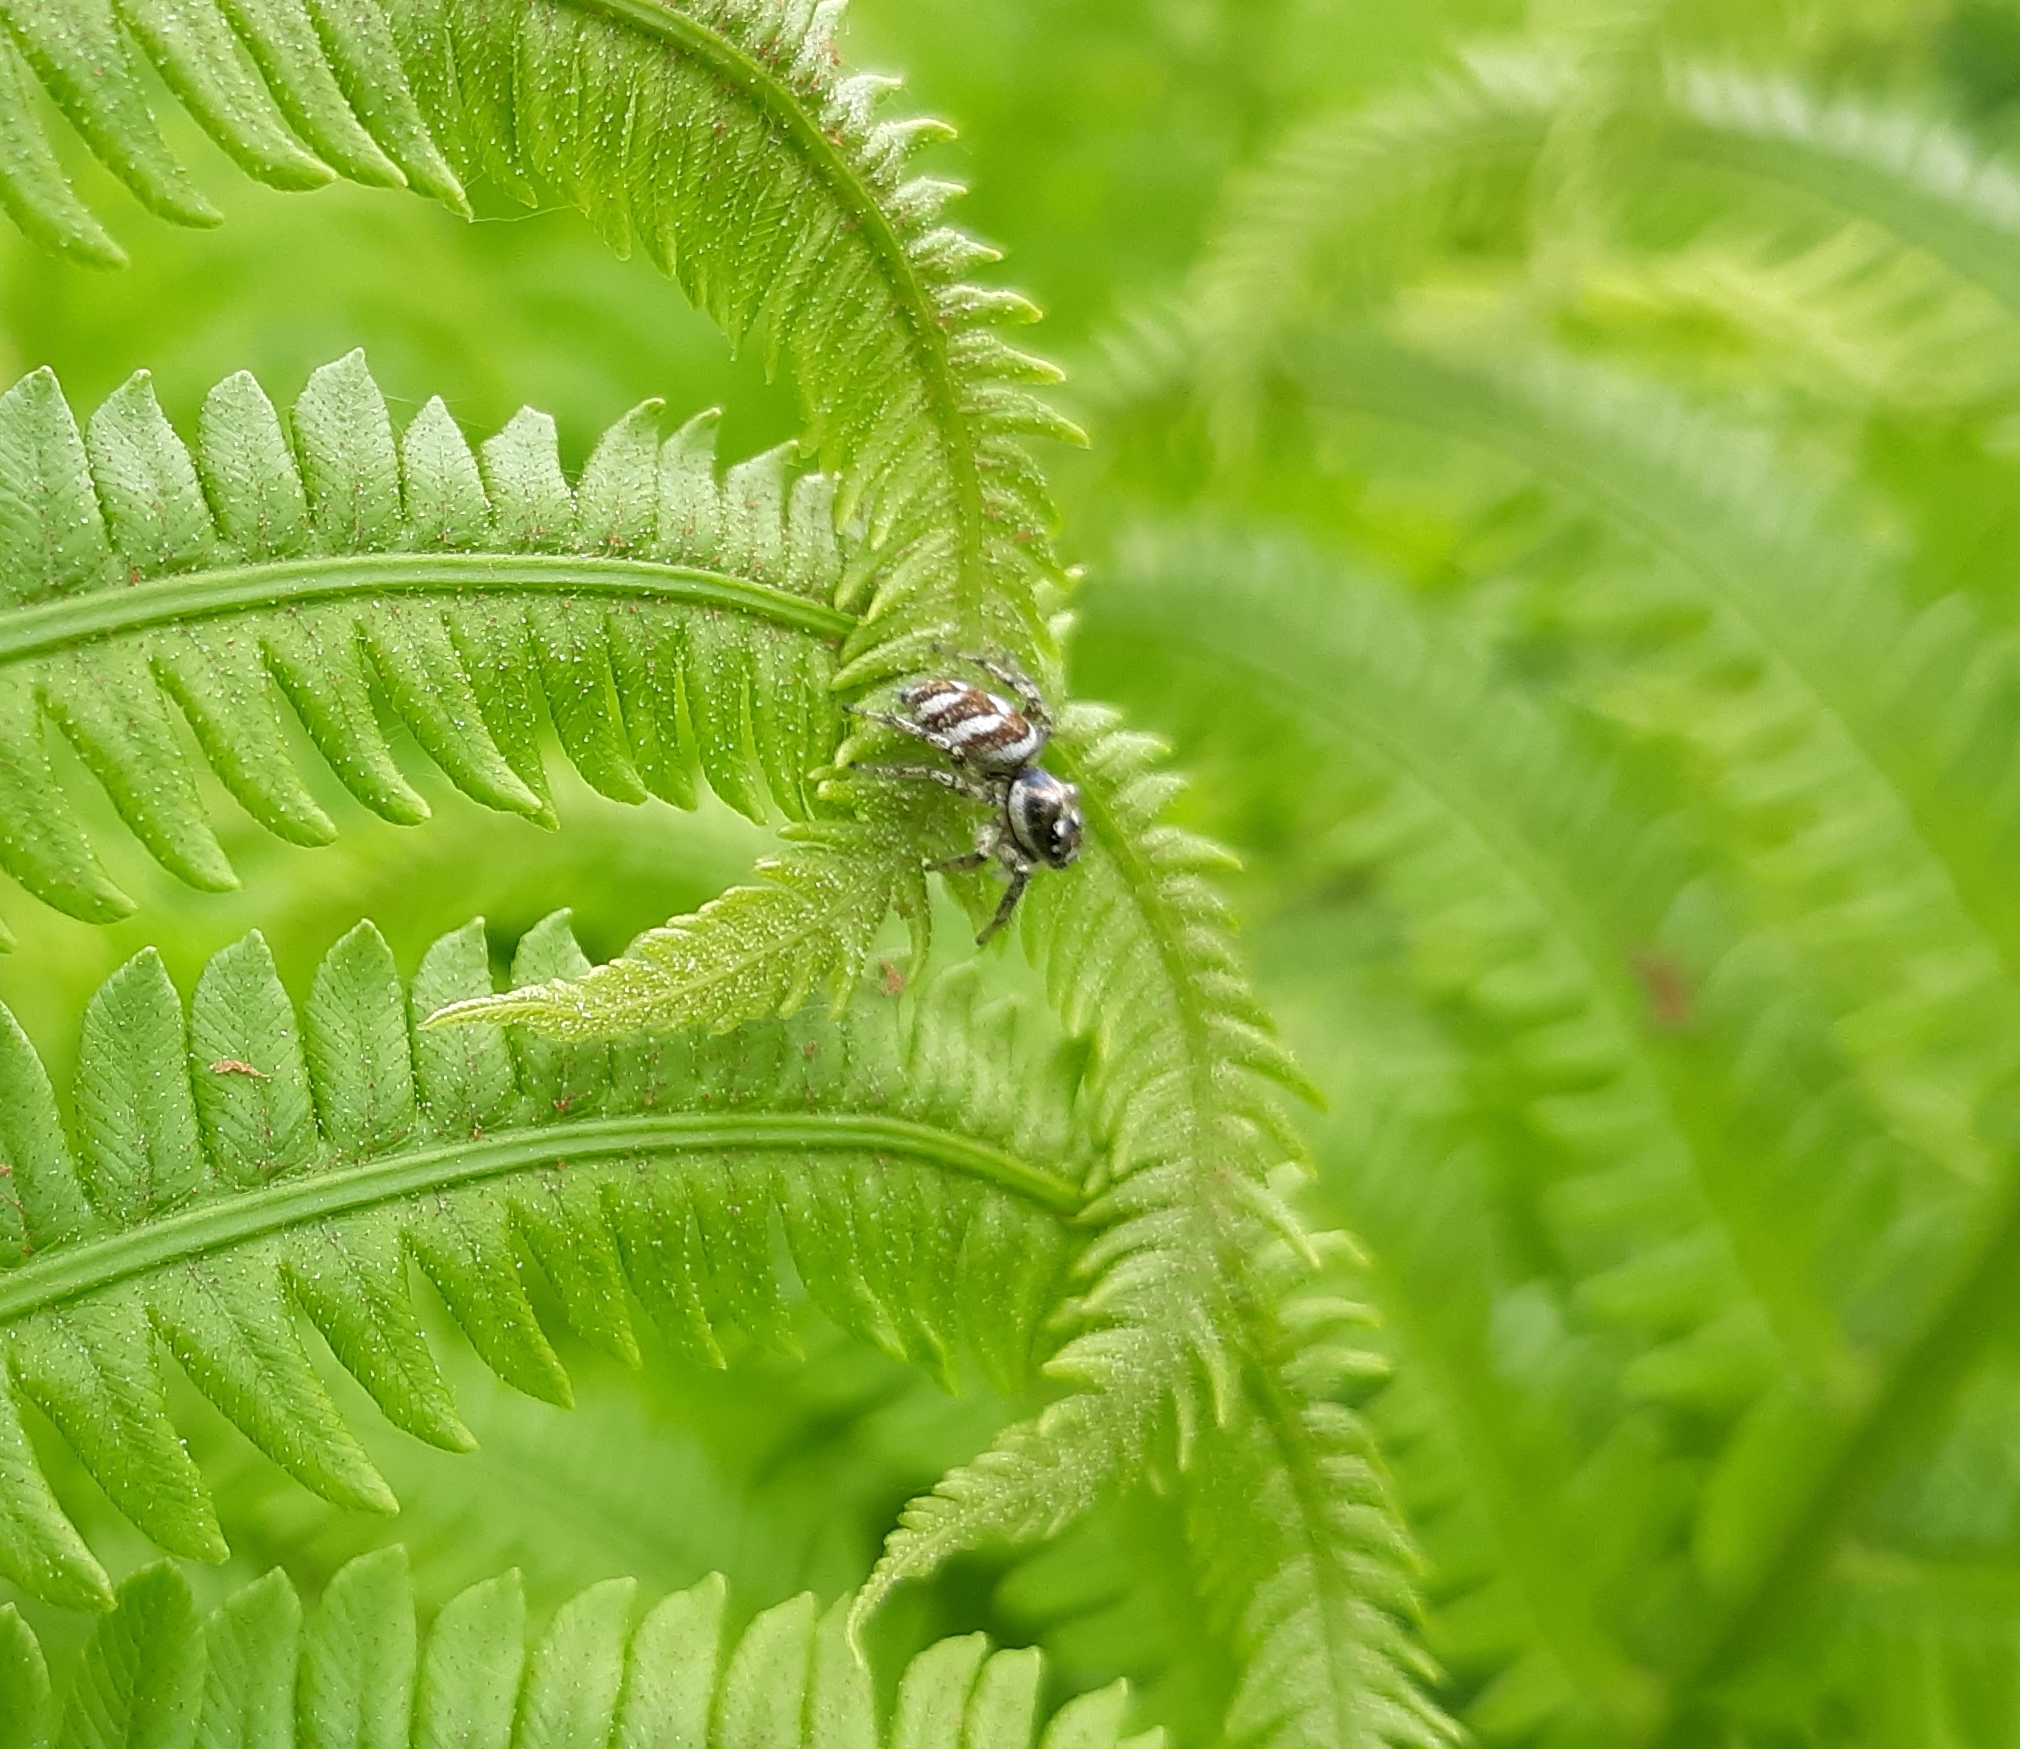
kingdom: Animalia
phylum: Arthropoda
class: Arachnida
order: Araneae
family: Salticidae
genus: Salticus
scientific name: Salticus scenicus
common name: Zebra jumper
